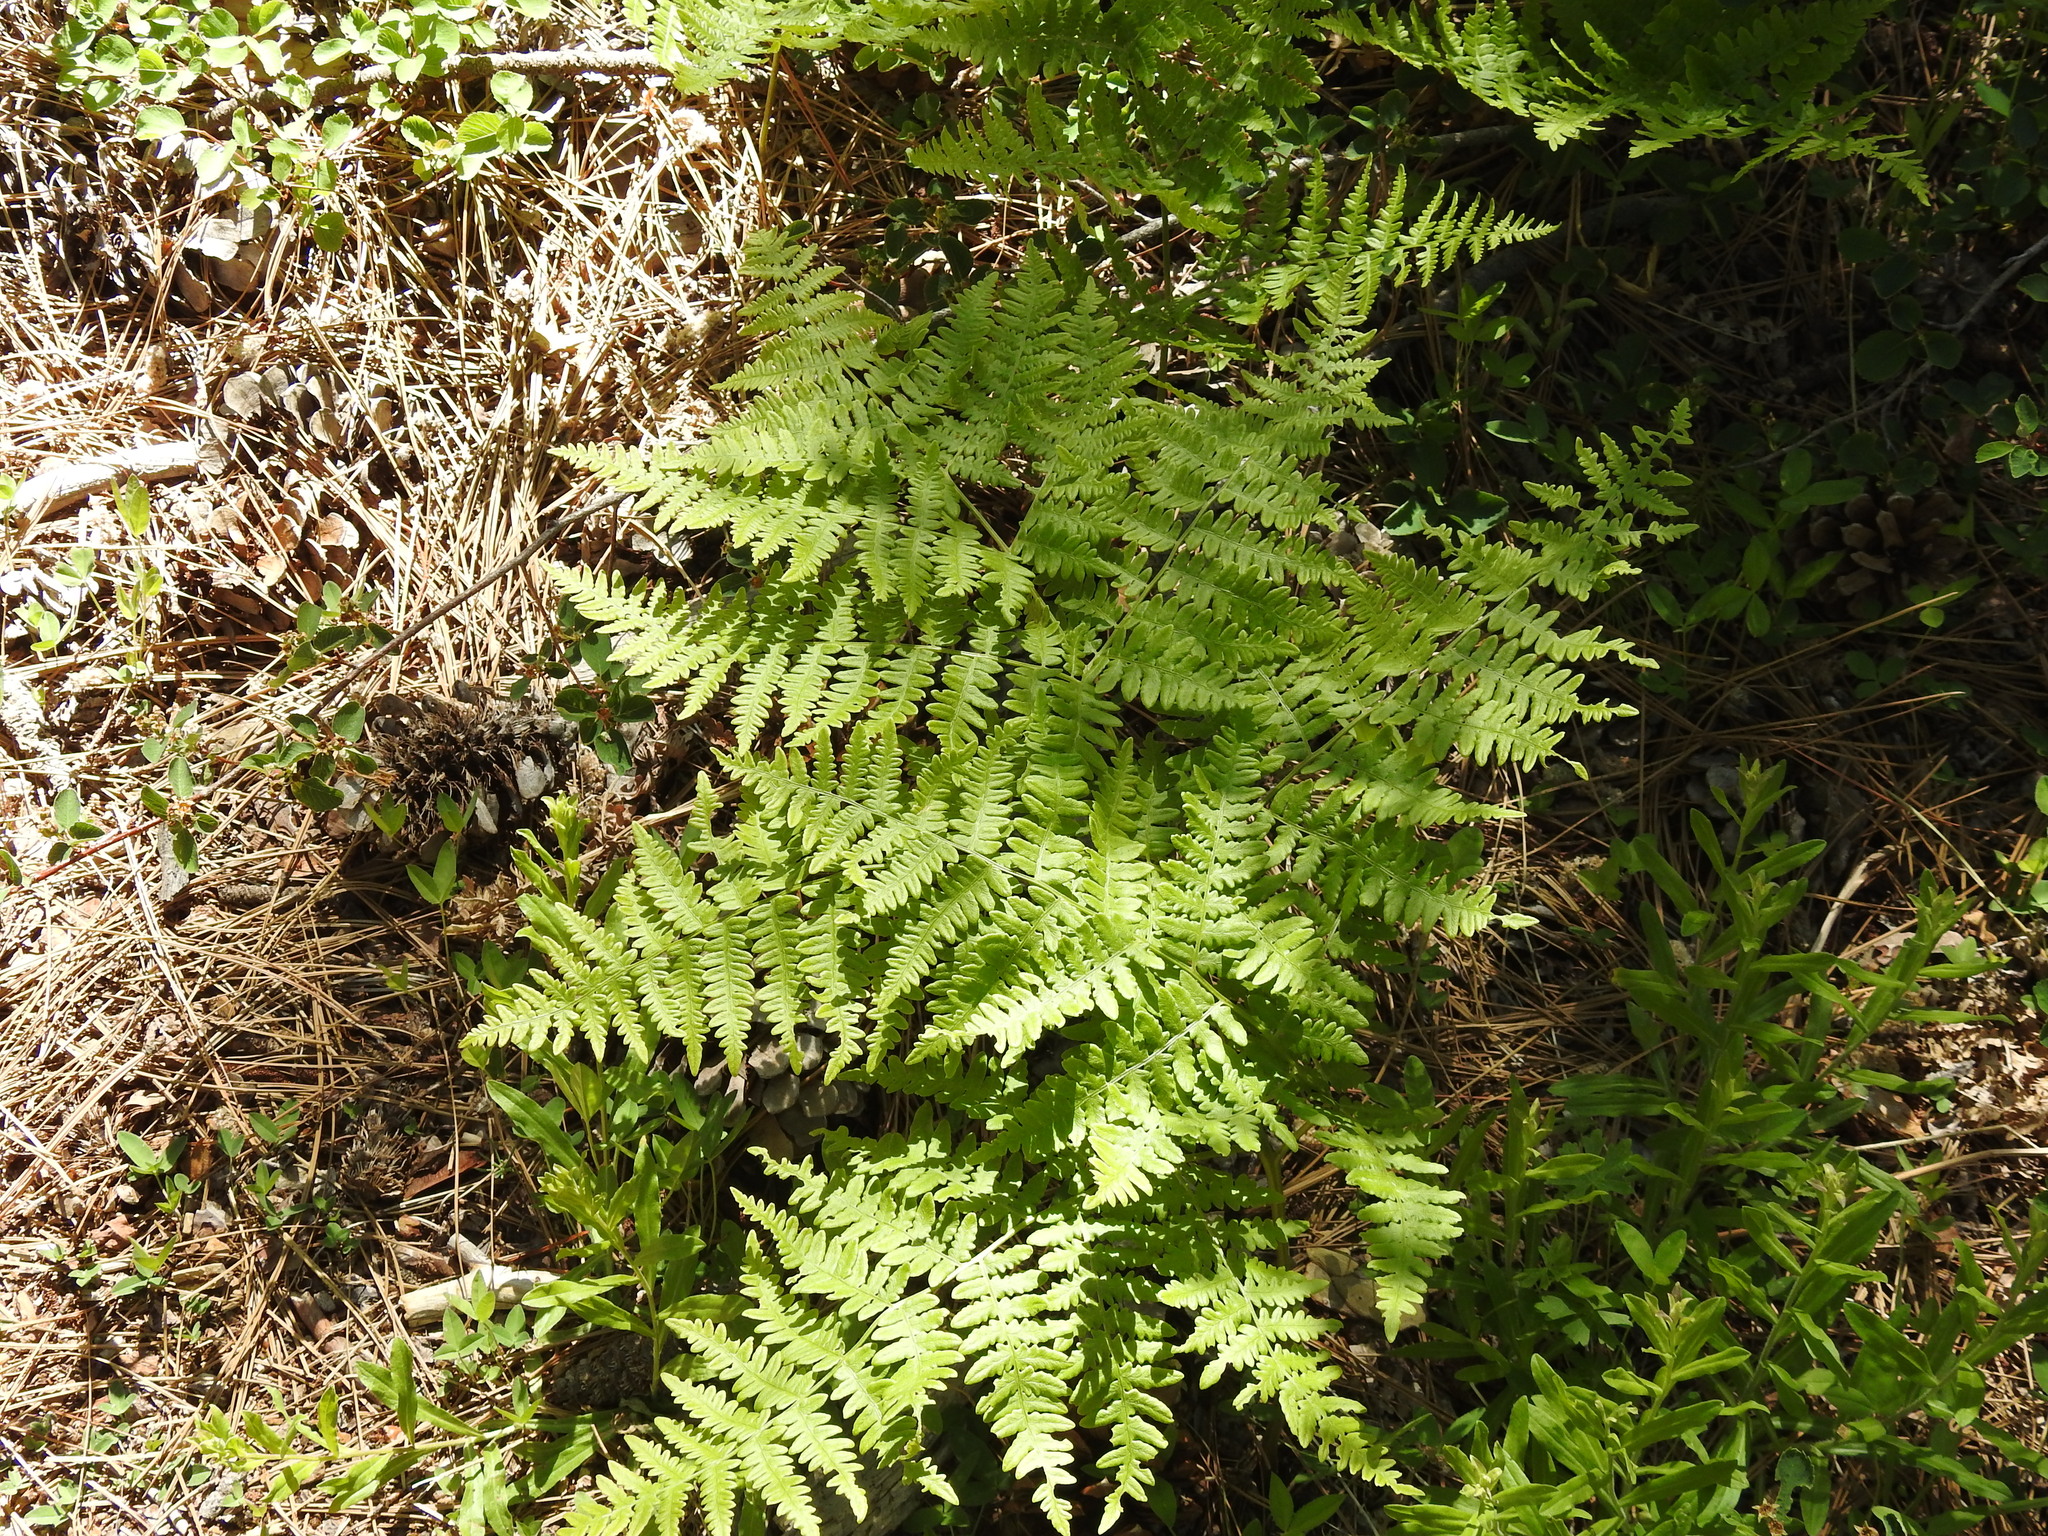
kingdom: Plantae
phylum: Tracheophyta
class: Polypodiopsida
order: Polypodiales
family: Dennstaedtiaceae
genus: Pteridium
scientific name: Pteridium aquilinum
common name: Bracken
